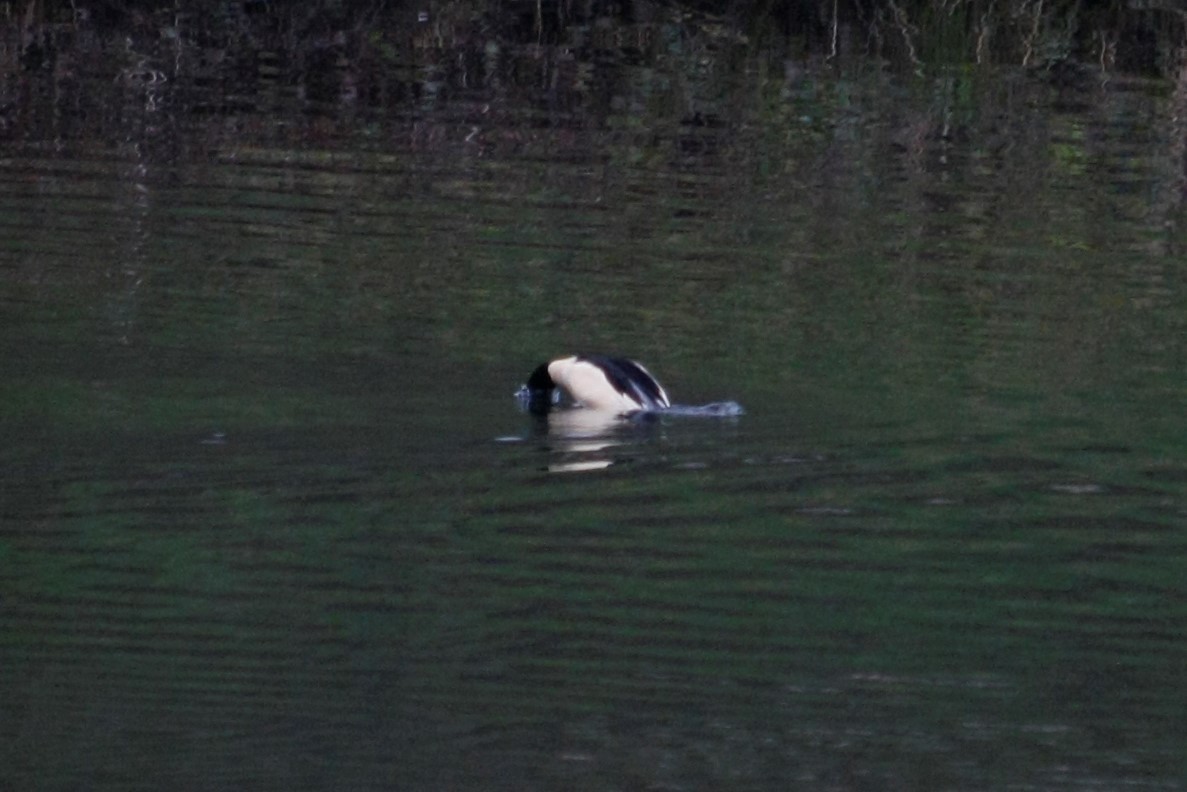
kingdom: Animalia
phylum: Chordata
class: Aves
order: Anseriformes
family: Anatidae
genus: Mergus
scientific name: Mergus merganser
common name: Common merganser
